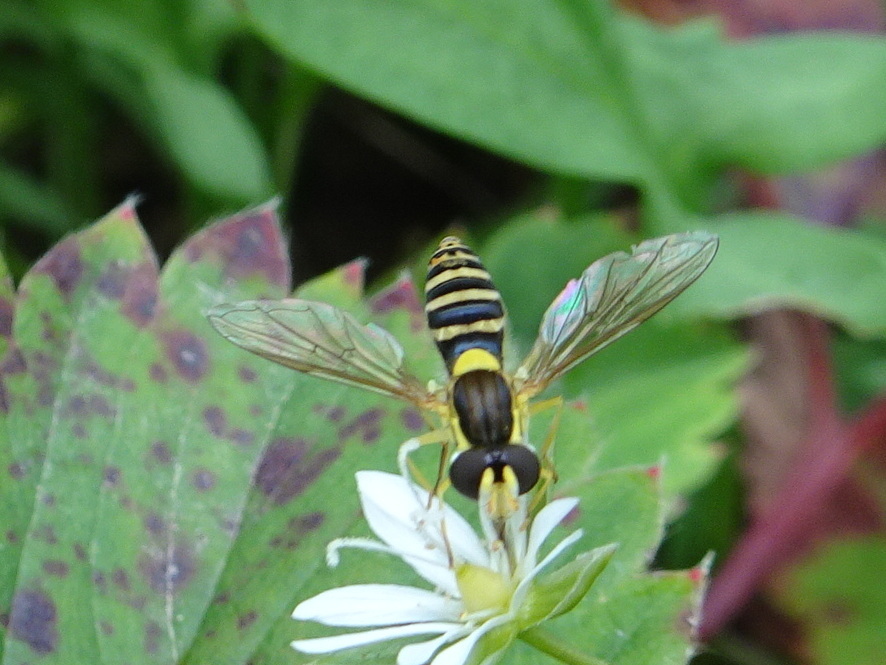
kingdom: Animalia
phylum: Arthropoda
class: Insecta
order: Diptera
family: Syrphidae
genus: Sphaerophoria
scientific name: Sphaerophoria
